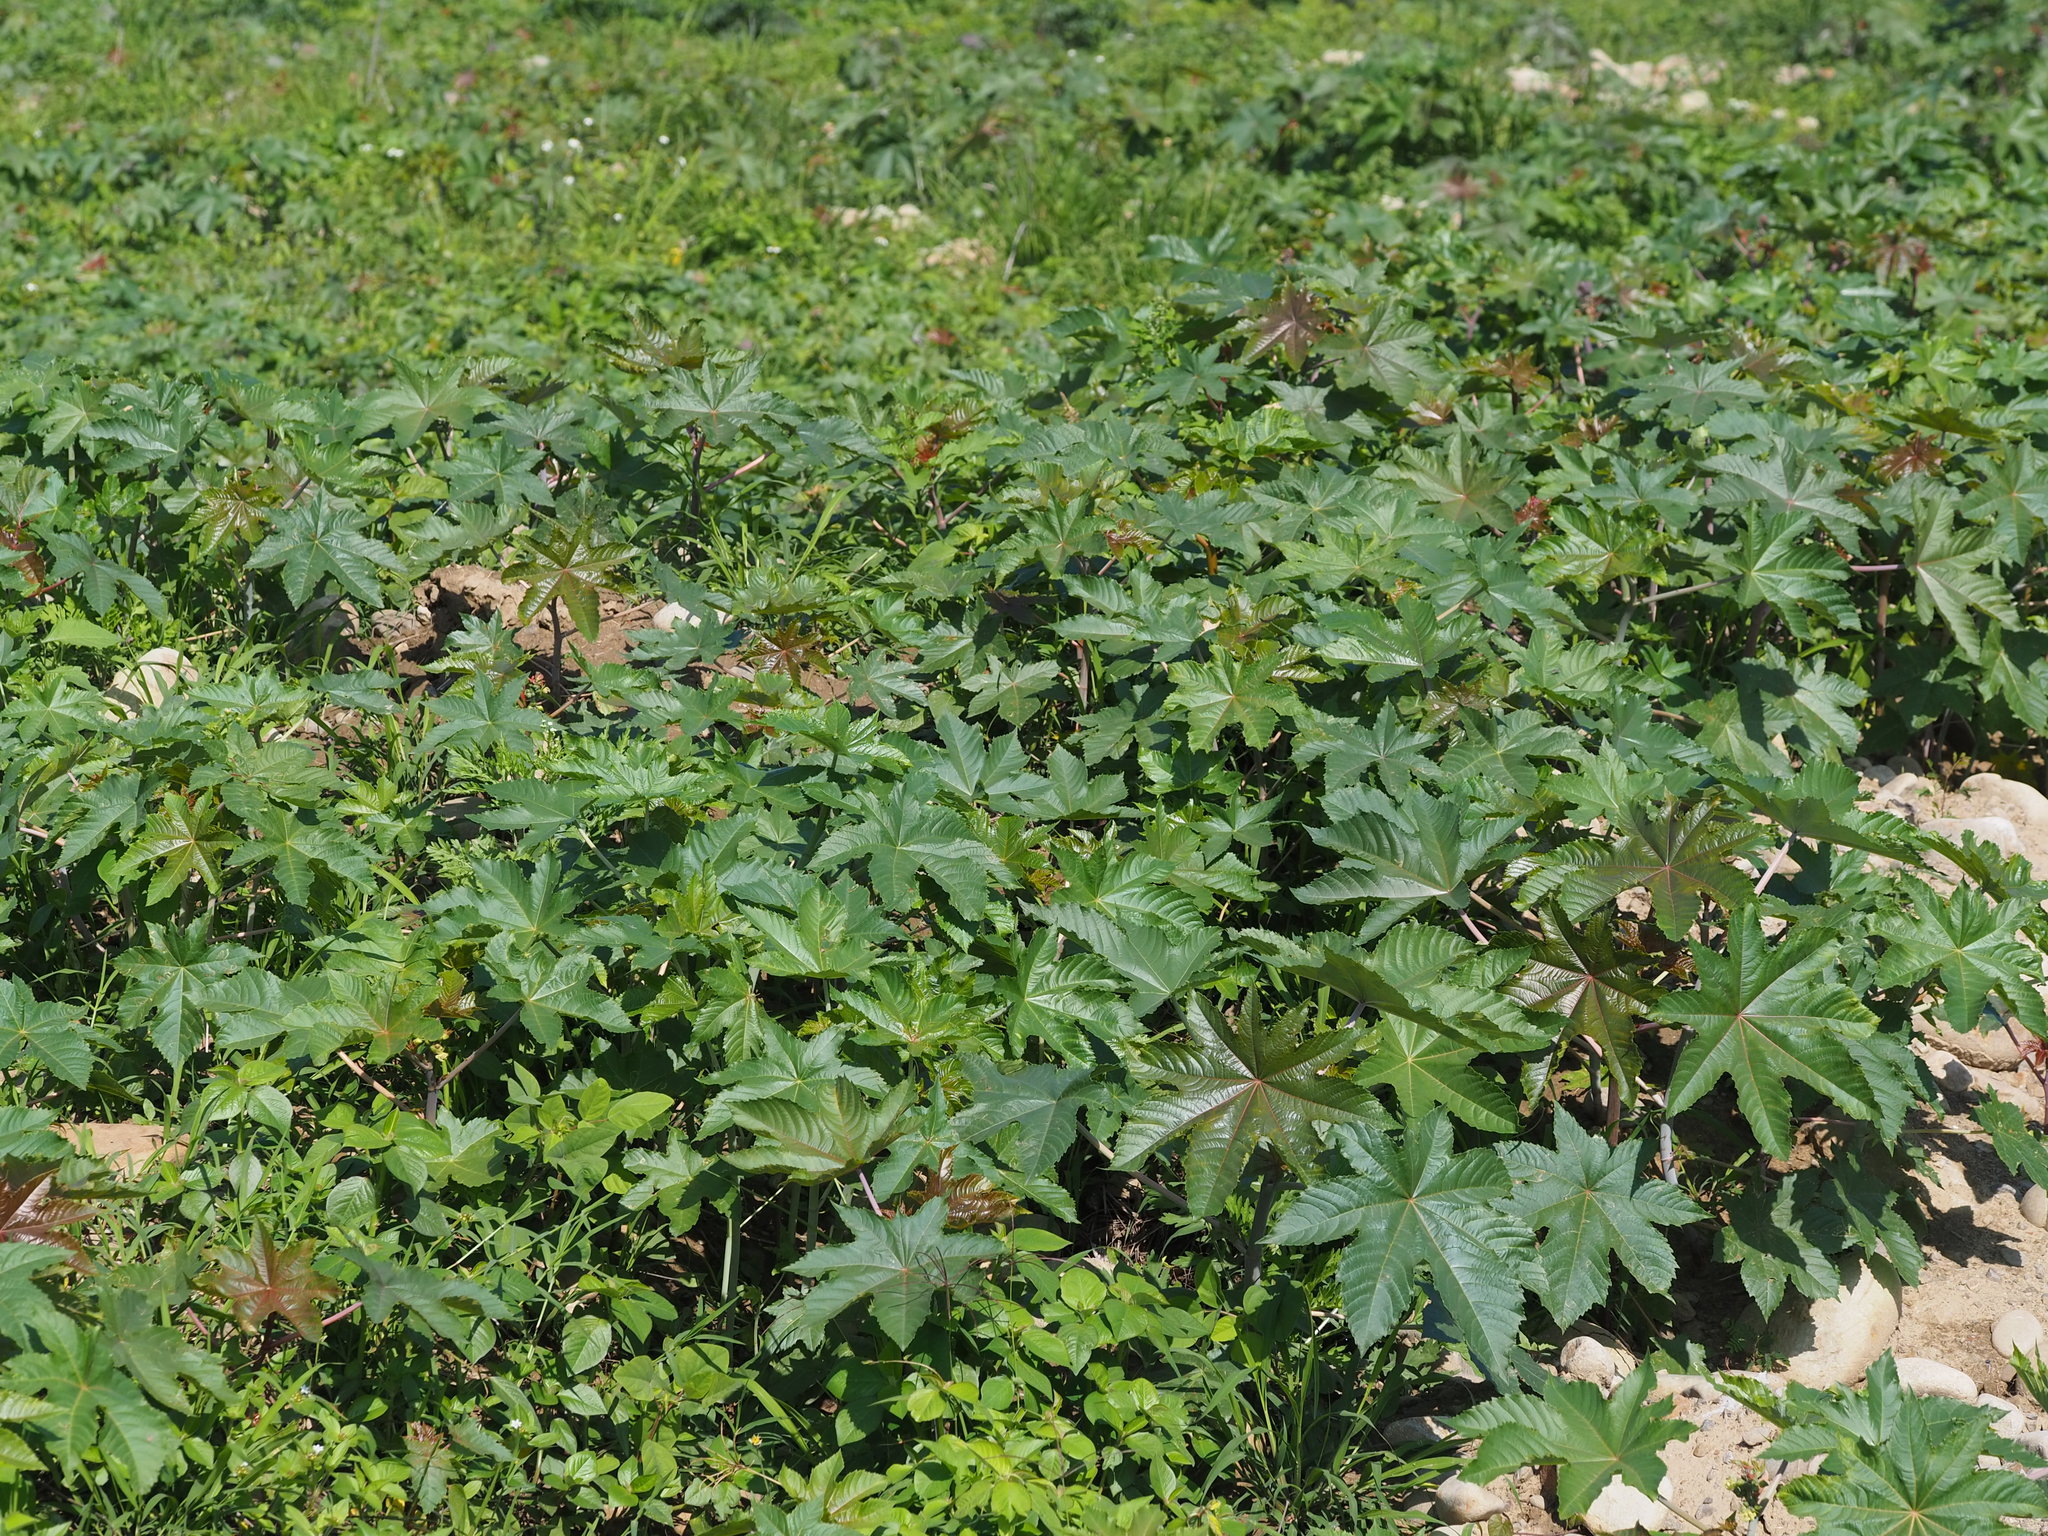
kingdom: Plantae
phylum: Tracheophyta
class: Magnoliopsida
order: Malpighiales
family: Euphorbiaceae
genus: Ricinus
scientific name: Ricinus communis
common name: Castor-oil-plant
